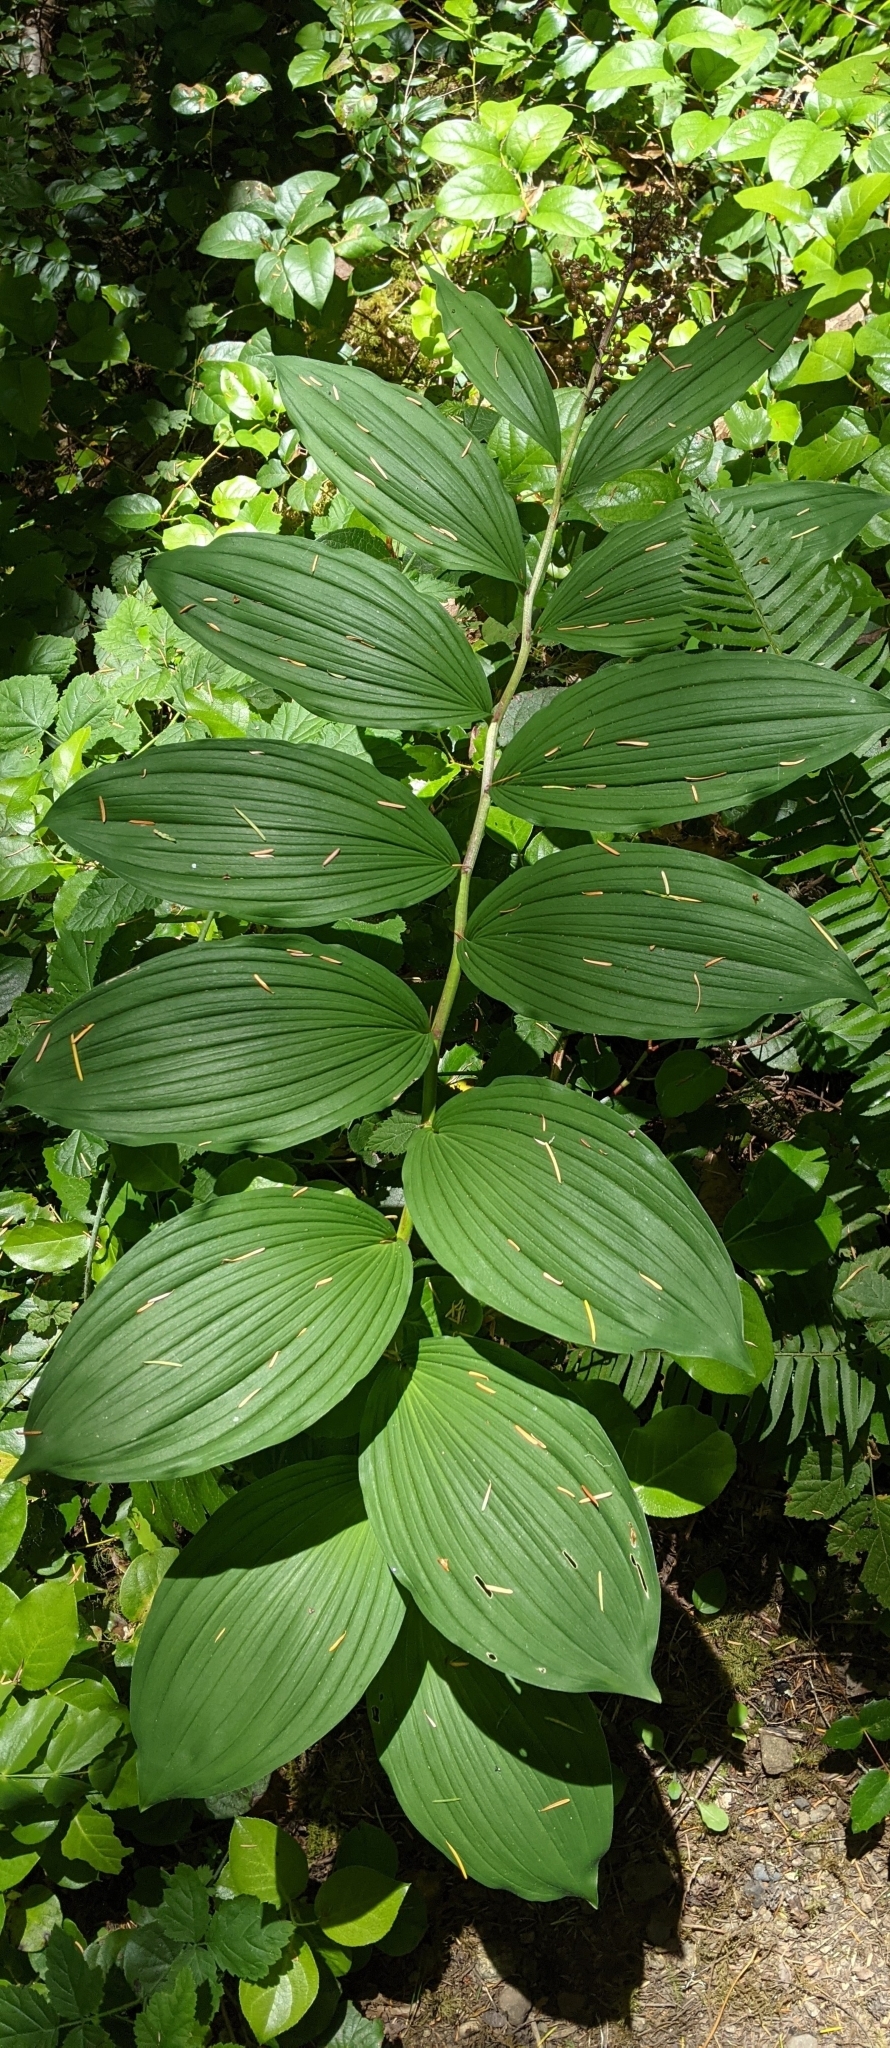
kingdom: Plantae
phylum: Tracheophyta
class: Liliopsida
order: Asparagales
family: Asparagaceae
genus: Maianthemum
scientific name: Maianthemum racemosum
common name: False spikenard
